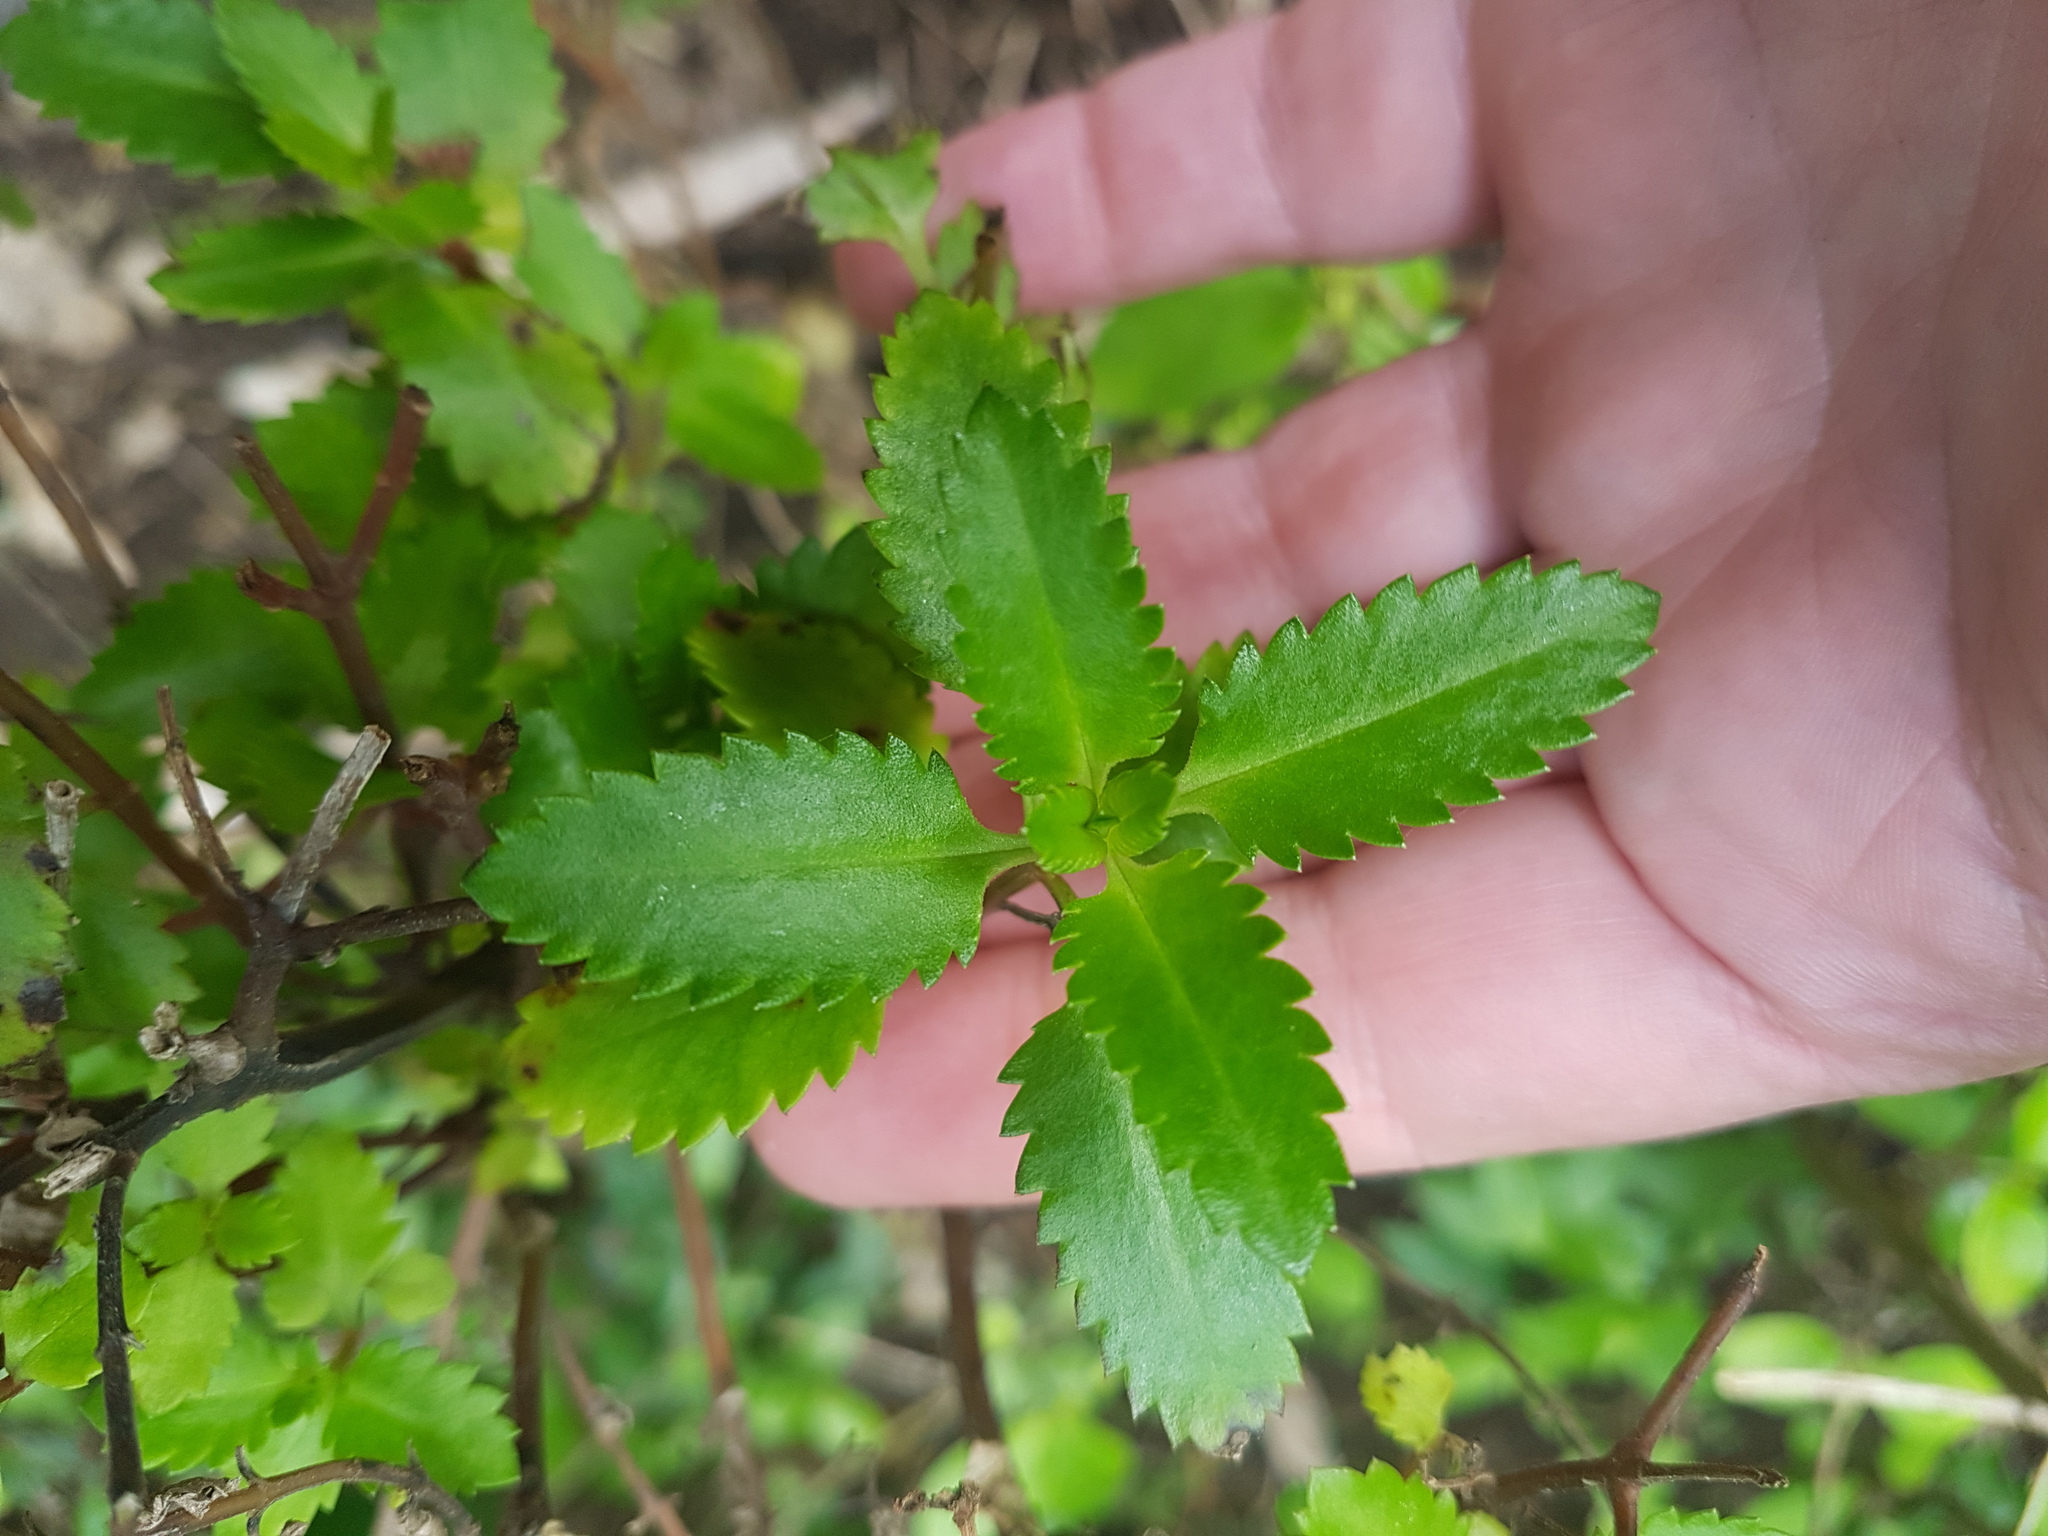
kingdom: Plantae
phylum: Tracheophyta
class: Magnoliopsida
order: Saxifragales
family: Haloragaceae
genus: Haloragis
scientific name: Haloragis erecta
